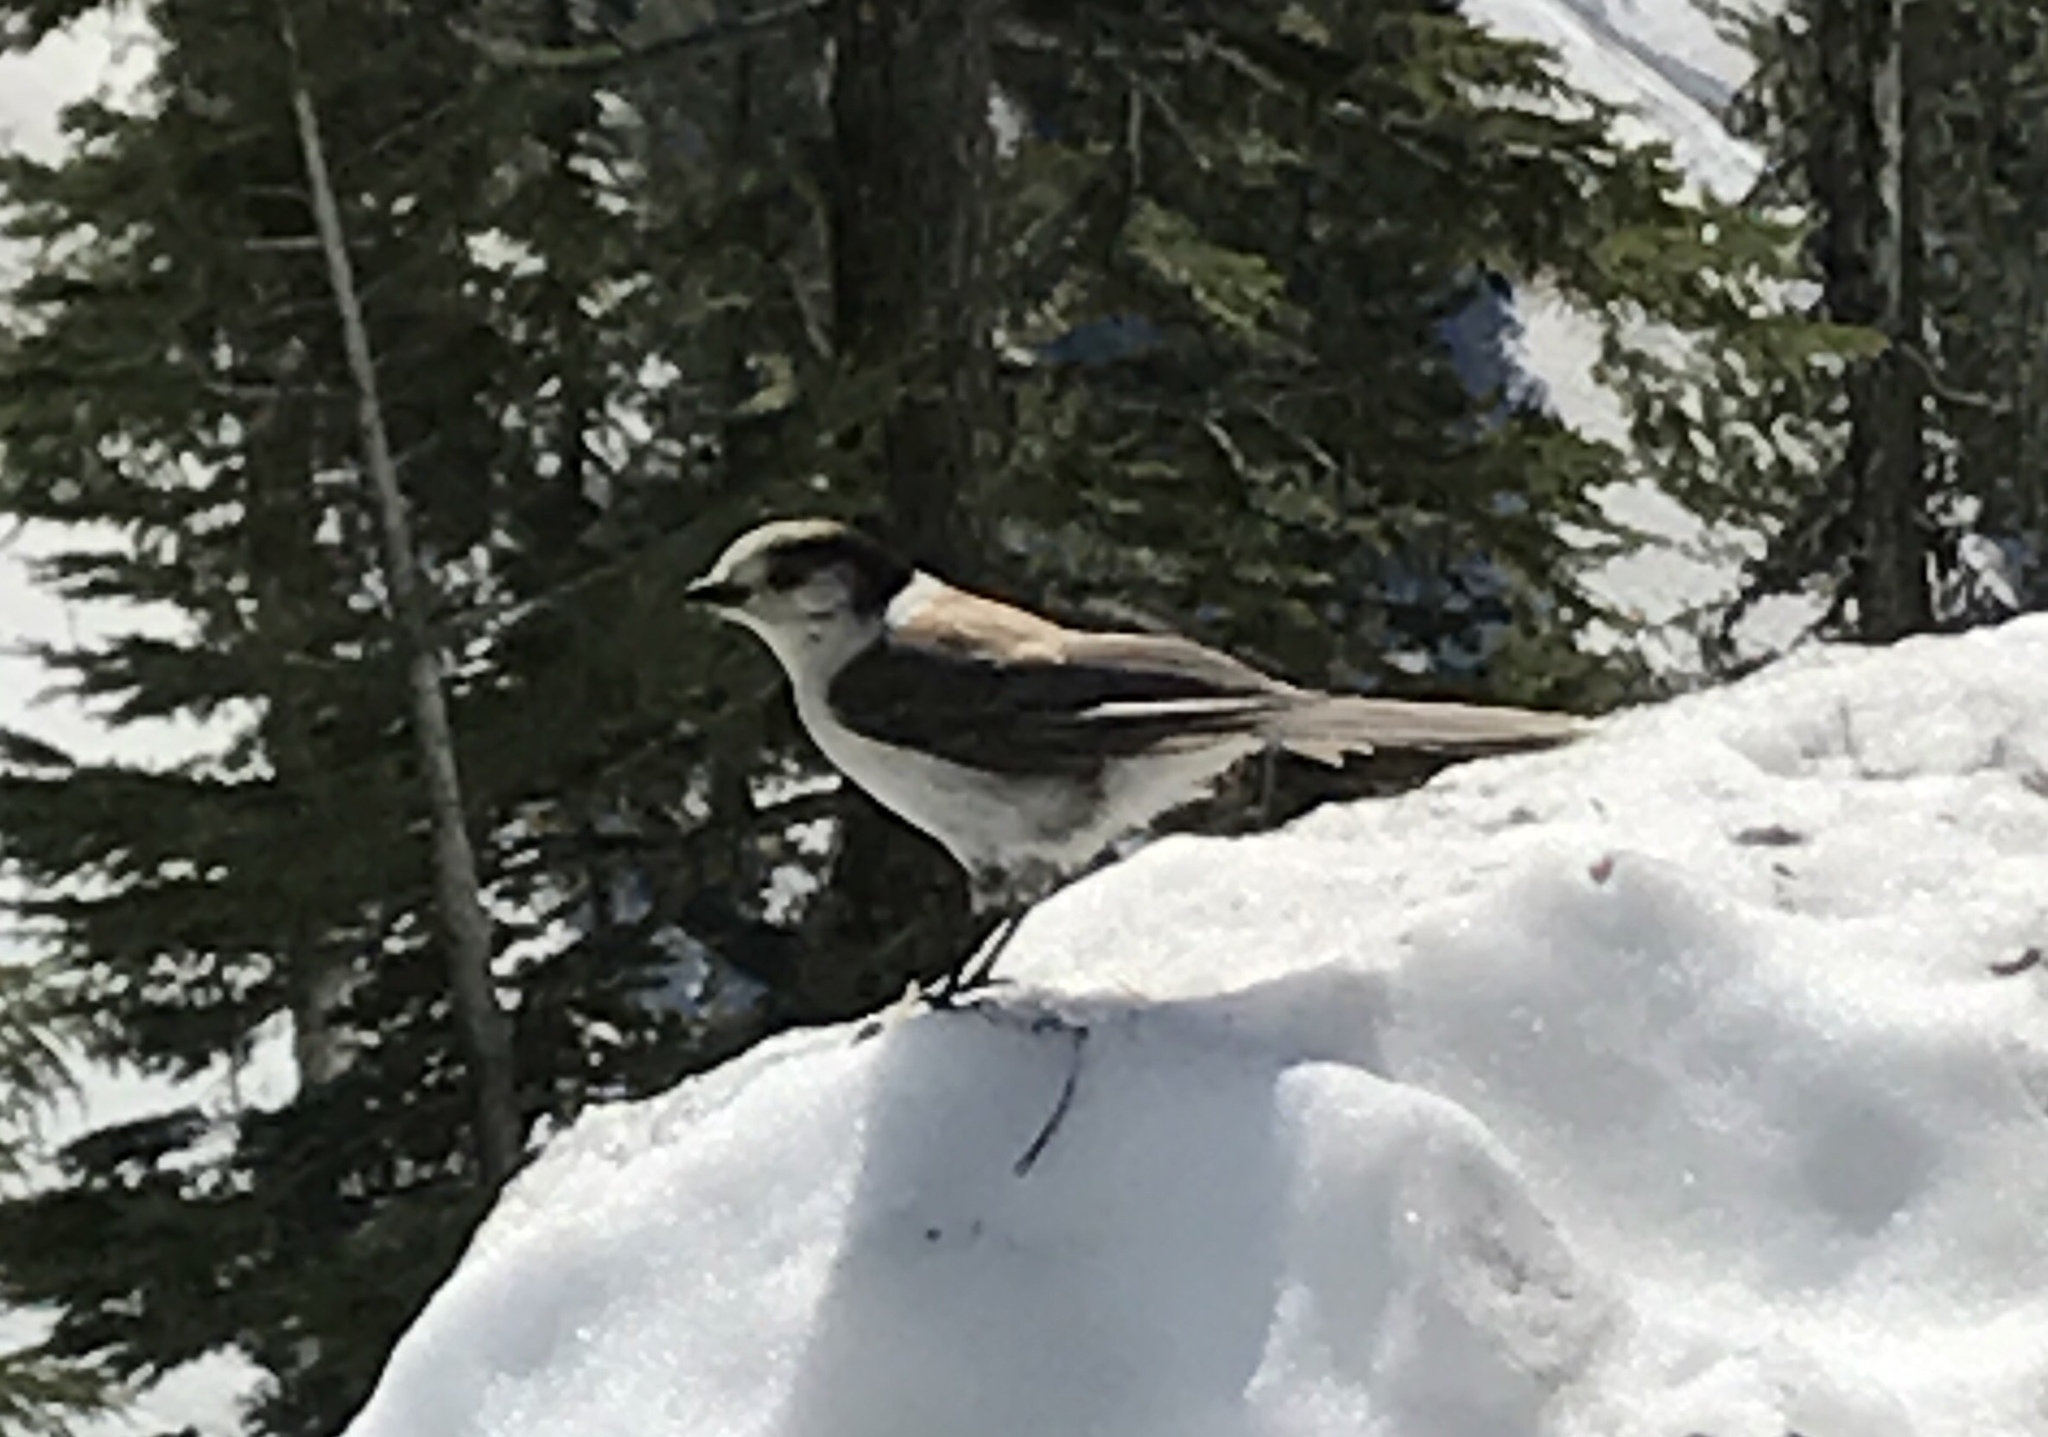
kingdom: Animalia
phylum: Chordata
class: Aves
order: Passeriformes
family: Corvidae
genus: Perisoreus
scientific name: Perisoreus canadensis
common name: Gray jay
